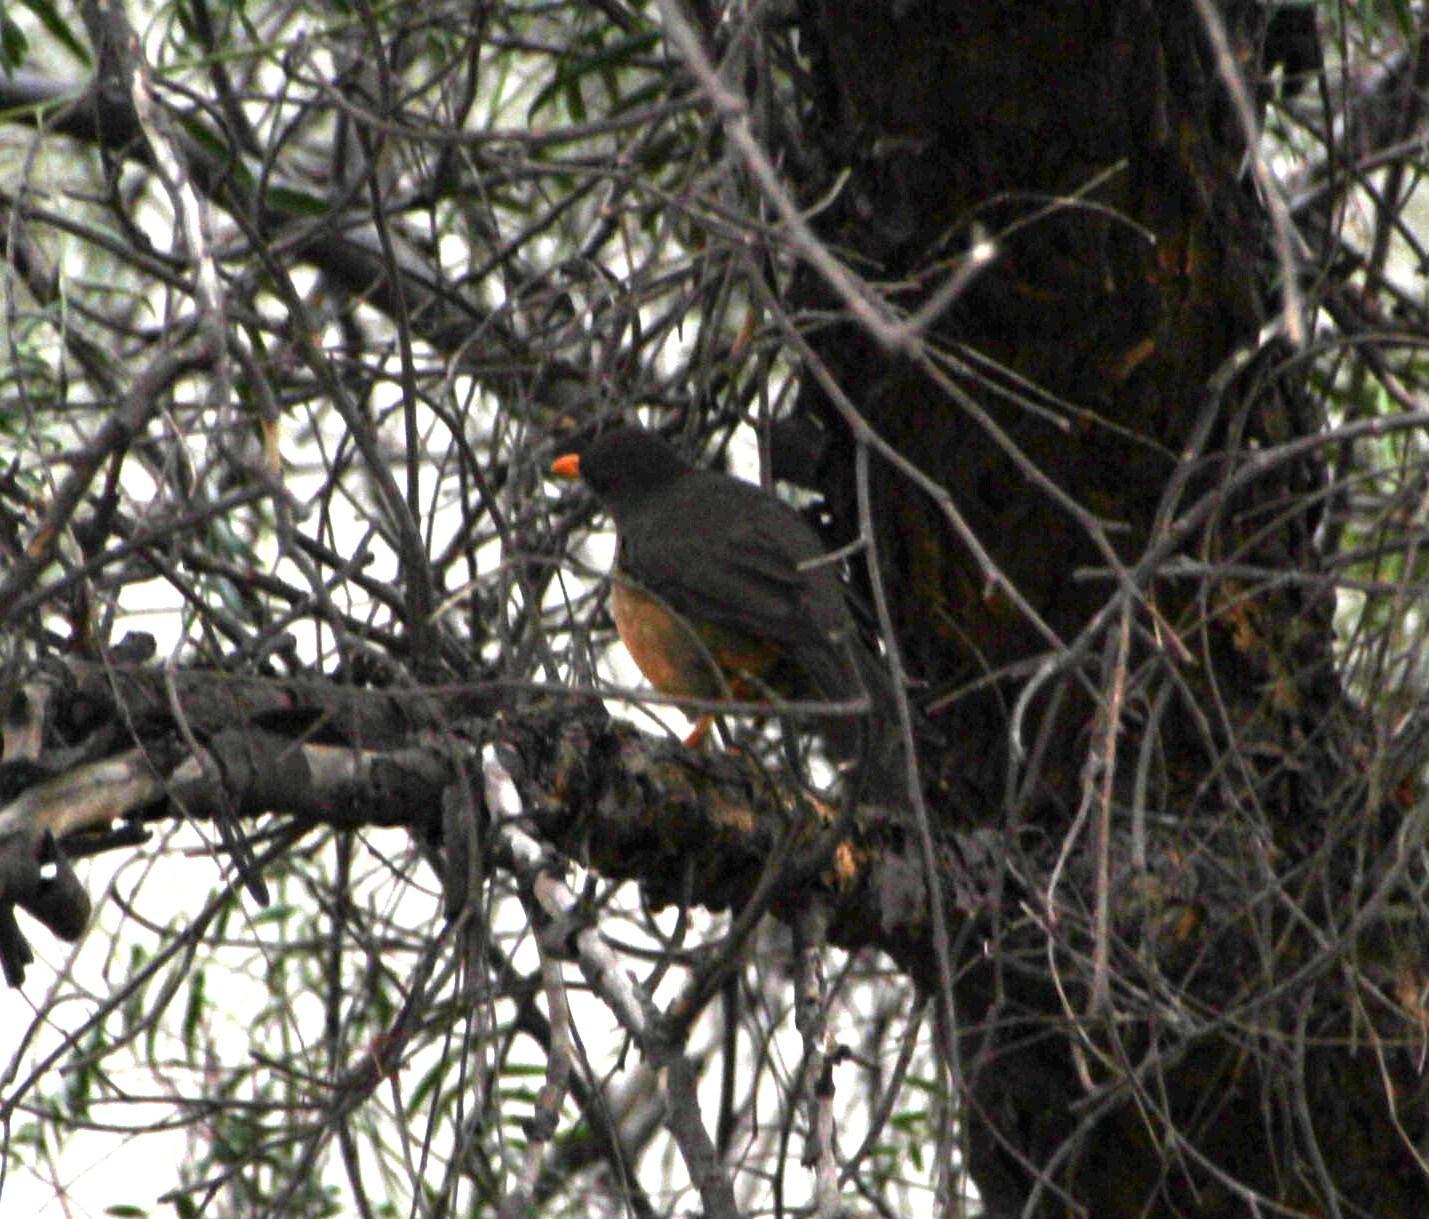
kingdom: Animalia
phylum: Chordata
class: Aves
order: Passeriformes
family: Turdidae
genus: Turdus
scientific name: Turdus smithi
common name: Karoo thrush
